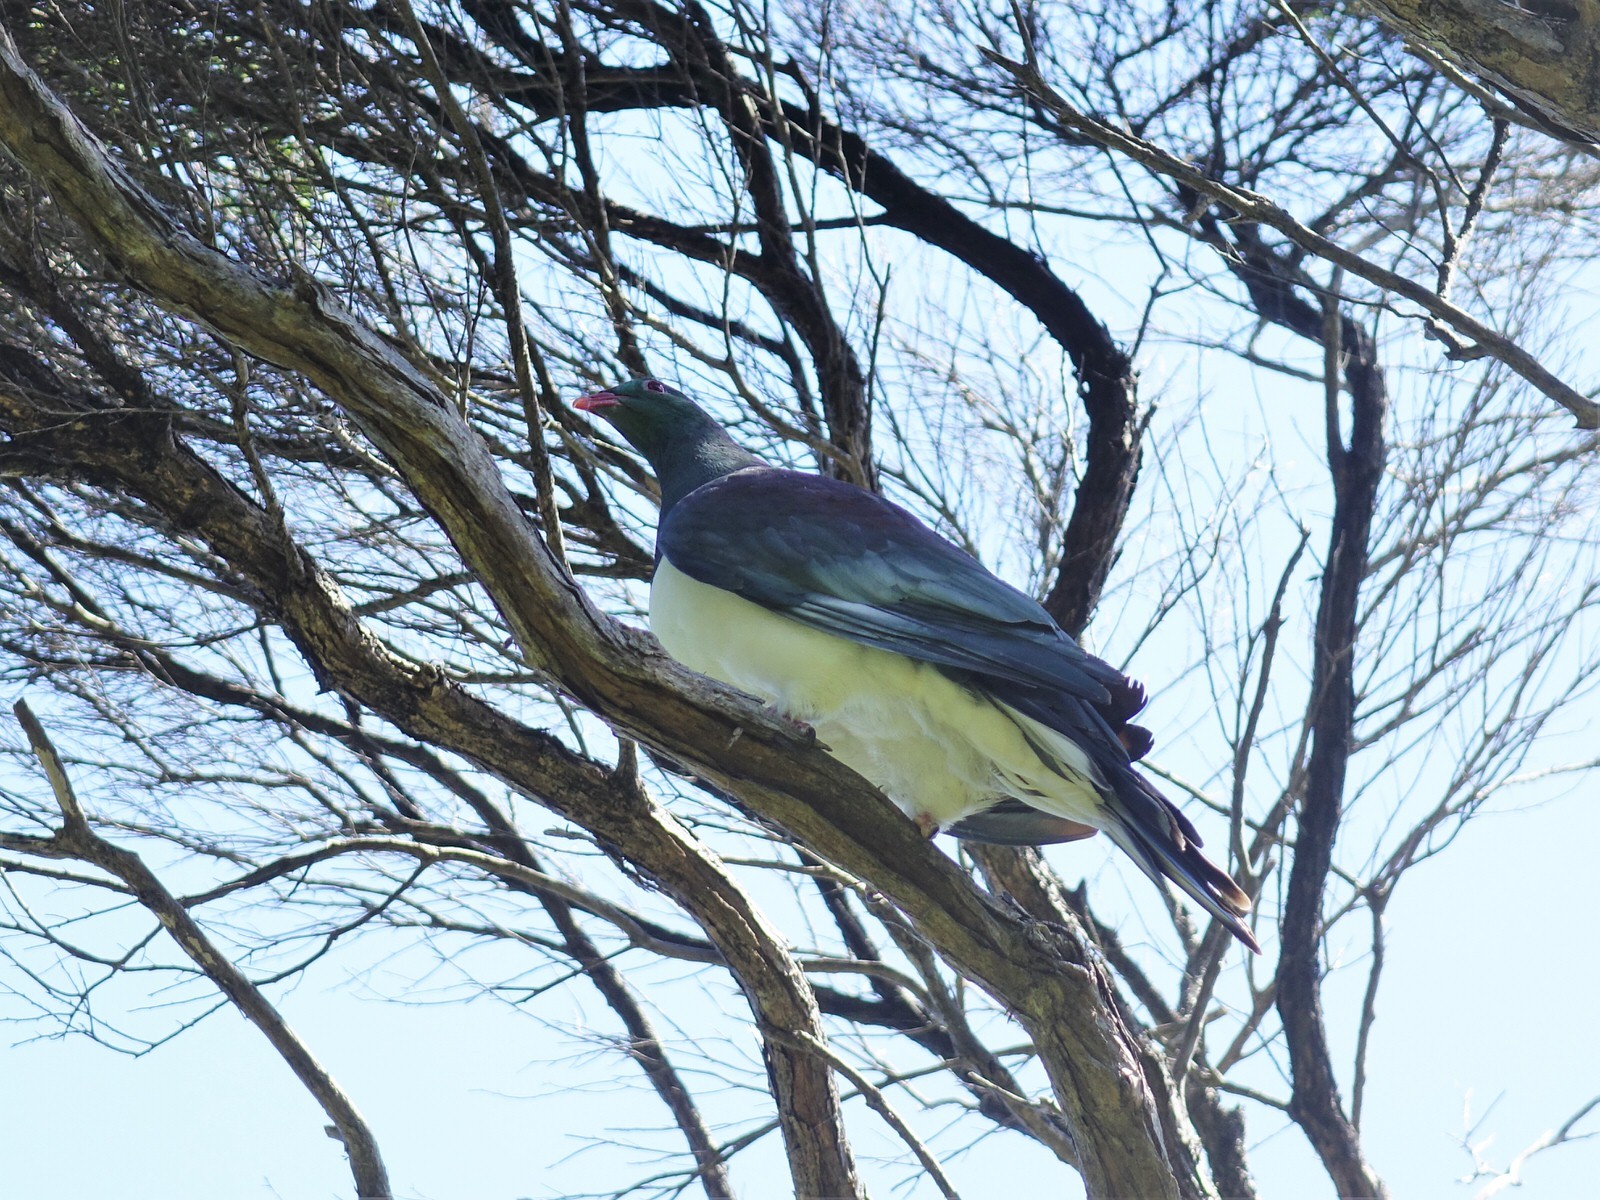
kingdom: Animalia
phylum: Chordata
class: Aves
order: Columbiformes
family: Columbidae
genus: Hemiphaga
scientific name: Hemiphaga novaeseelandiae
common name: New zealand pigeon
